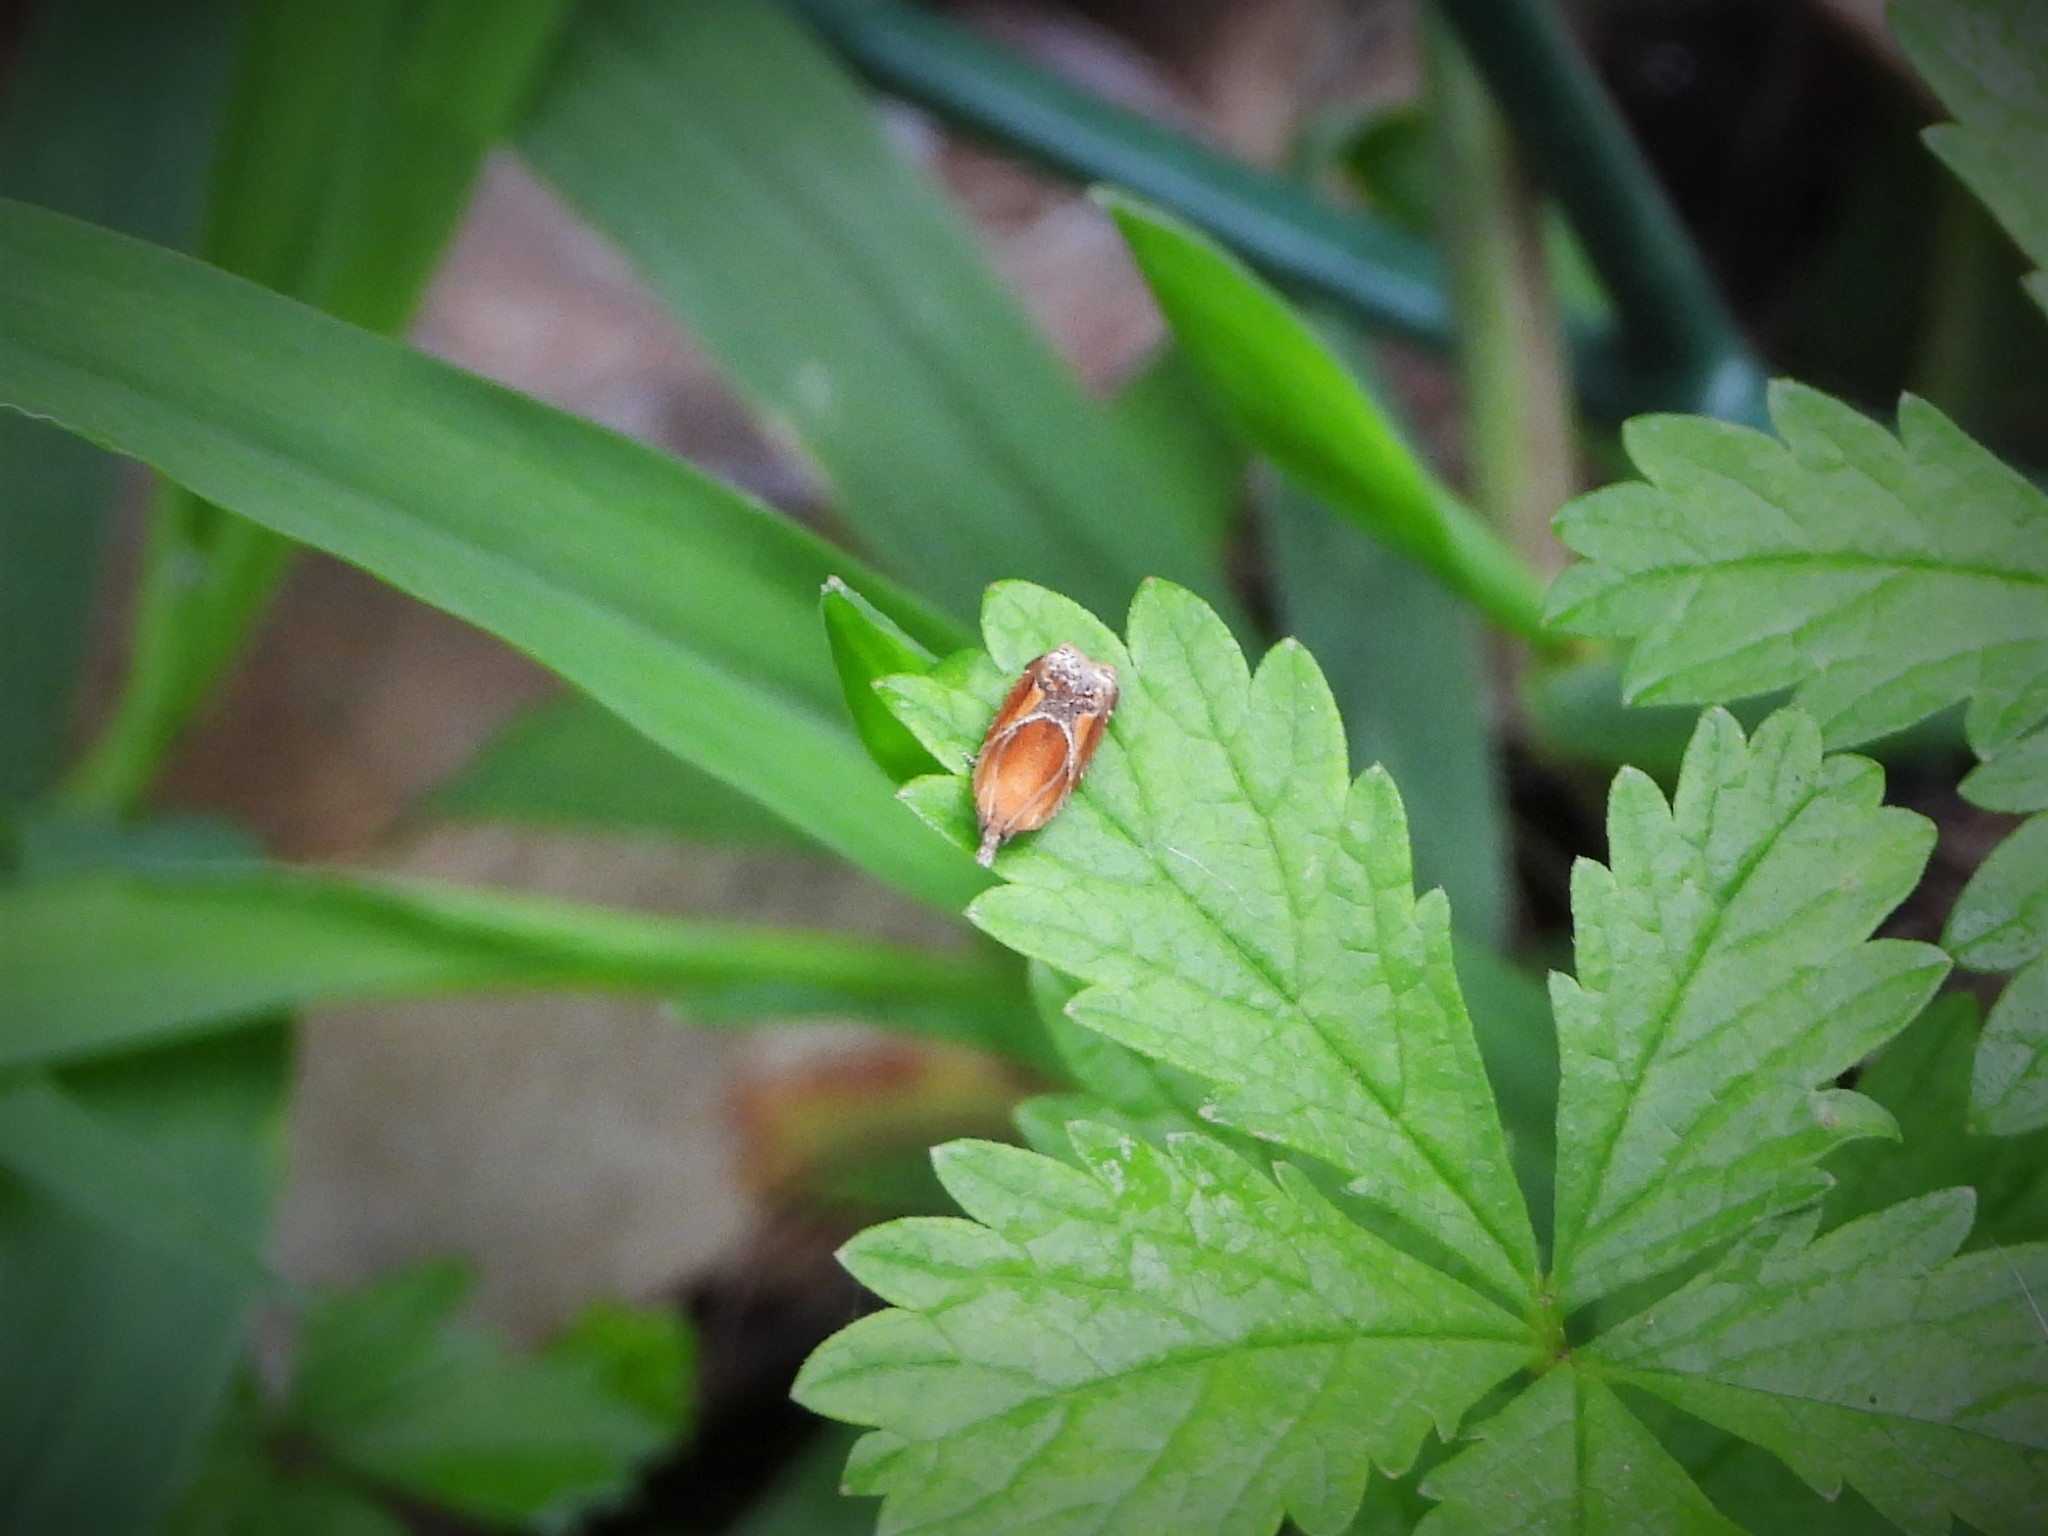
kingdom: Animalia
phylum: Arthropoda
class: Insecta
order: Lepidoptera
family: Tortricidae
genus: Ancylis
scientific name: Ancylis obtusana
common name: Small buckthorn roller
